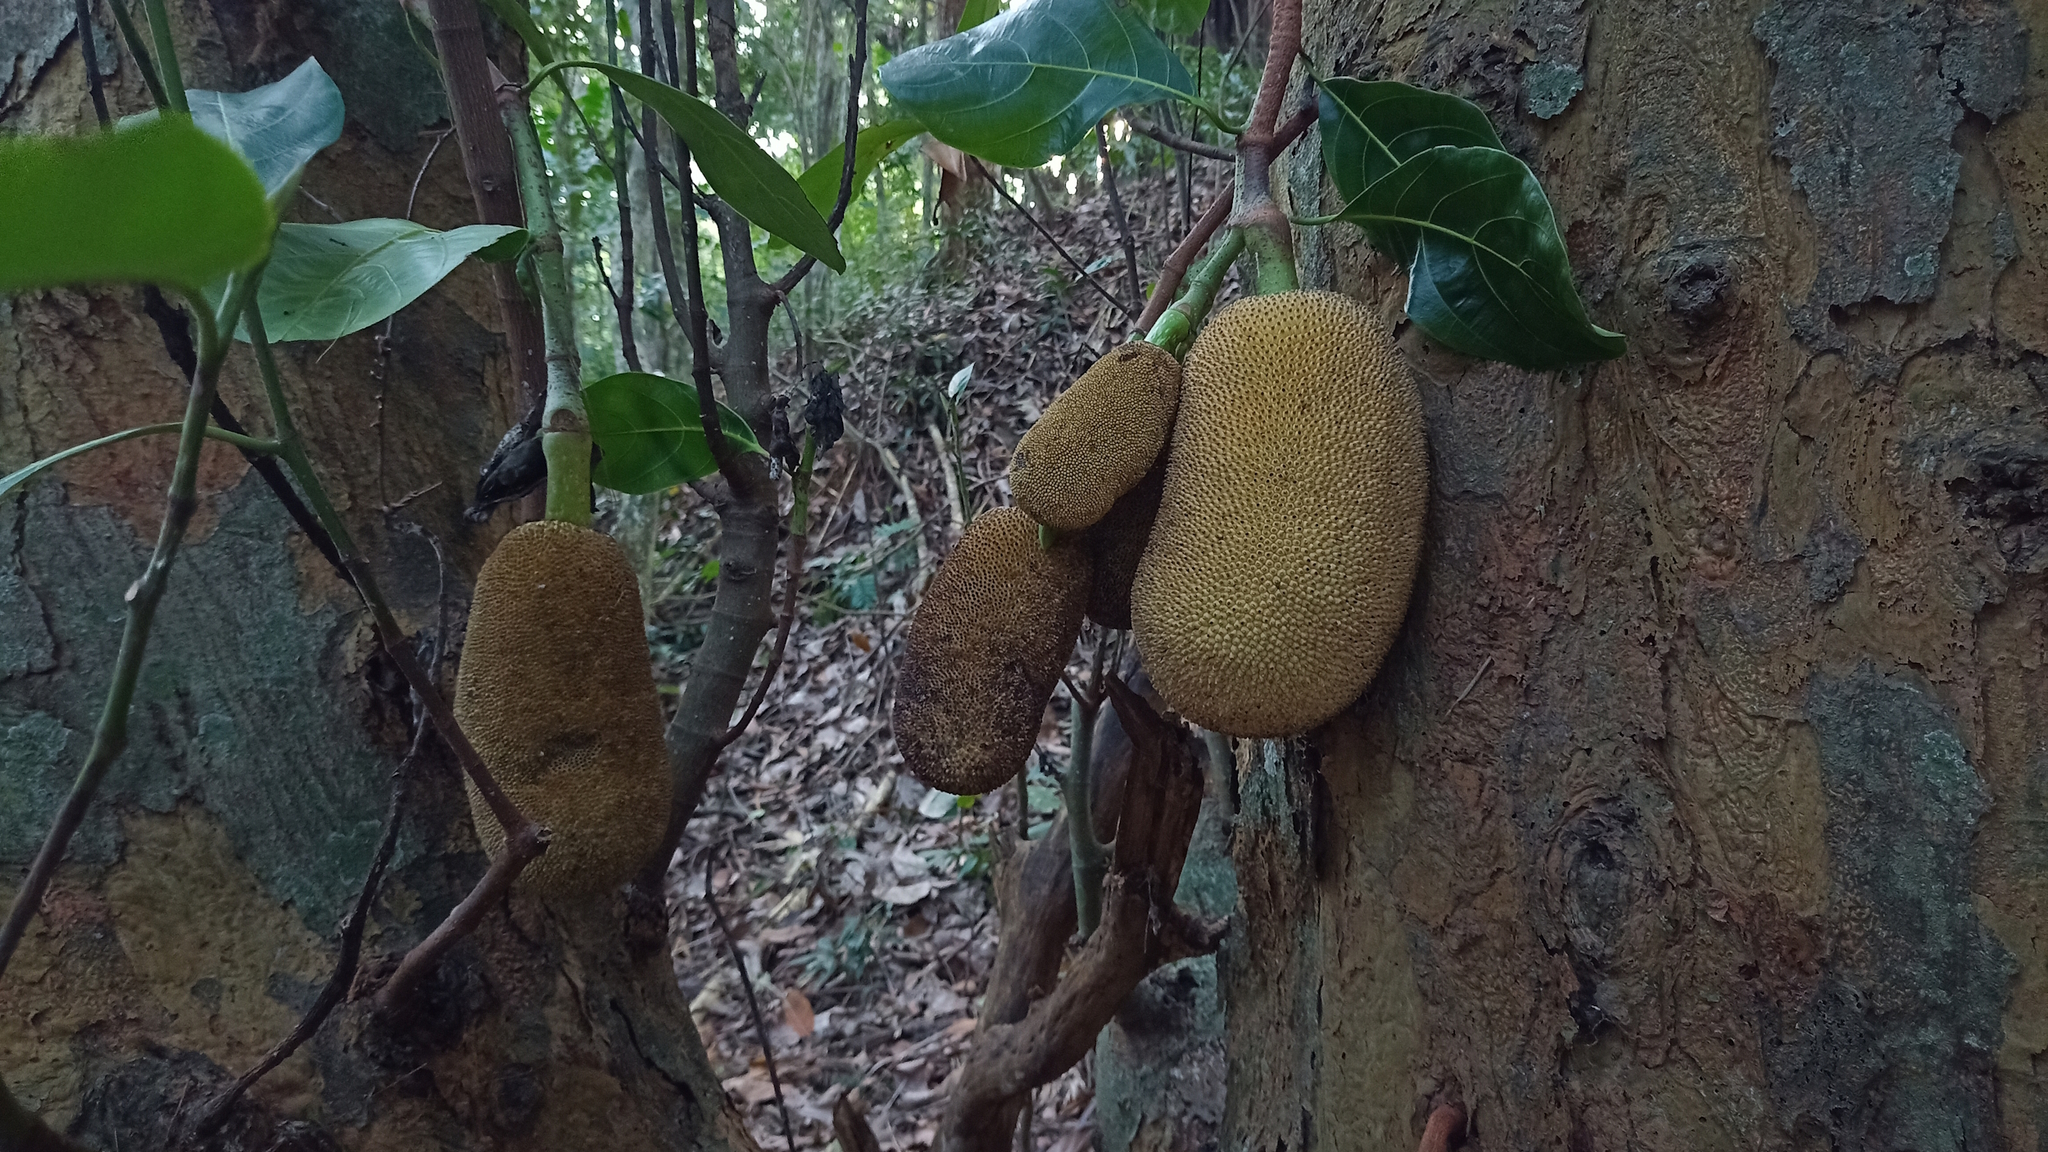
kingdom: Plantae
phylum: Tracheophyta
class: Magnoliopsida
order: Rosales
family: Moraceae
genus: Artocarpus
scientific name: Artocarpus heterophyllus
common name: Jackfruit
